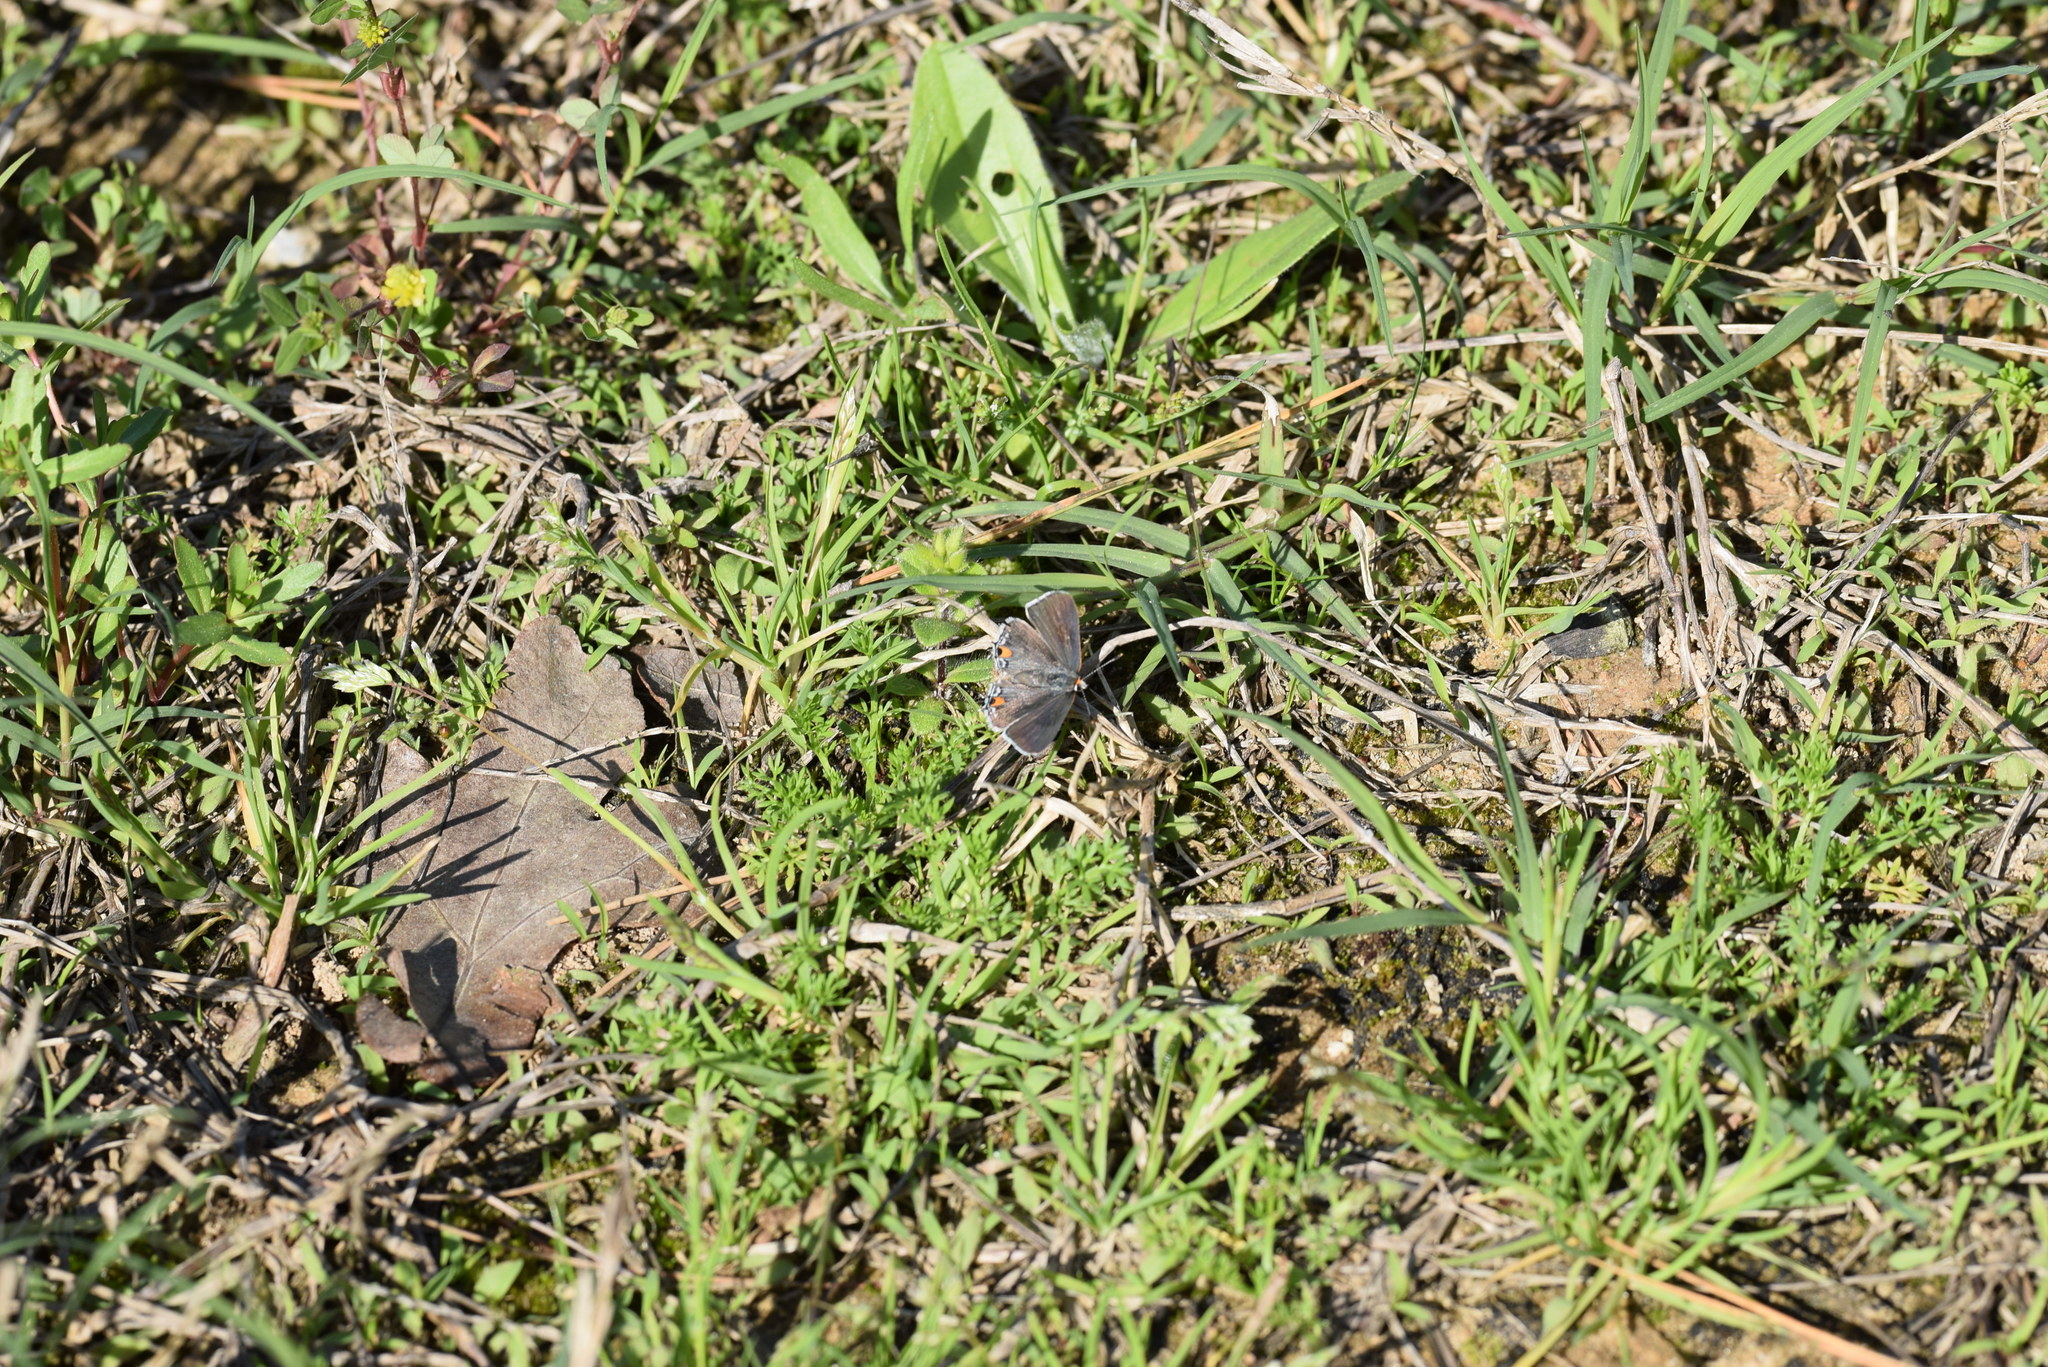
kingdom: Animalia
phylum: Arthropoda
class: Insecta
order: Lepidoptera
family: Lycaenidae
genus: Strymon
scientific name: Strymon melinus
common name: Gray hairstreak
